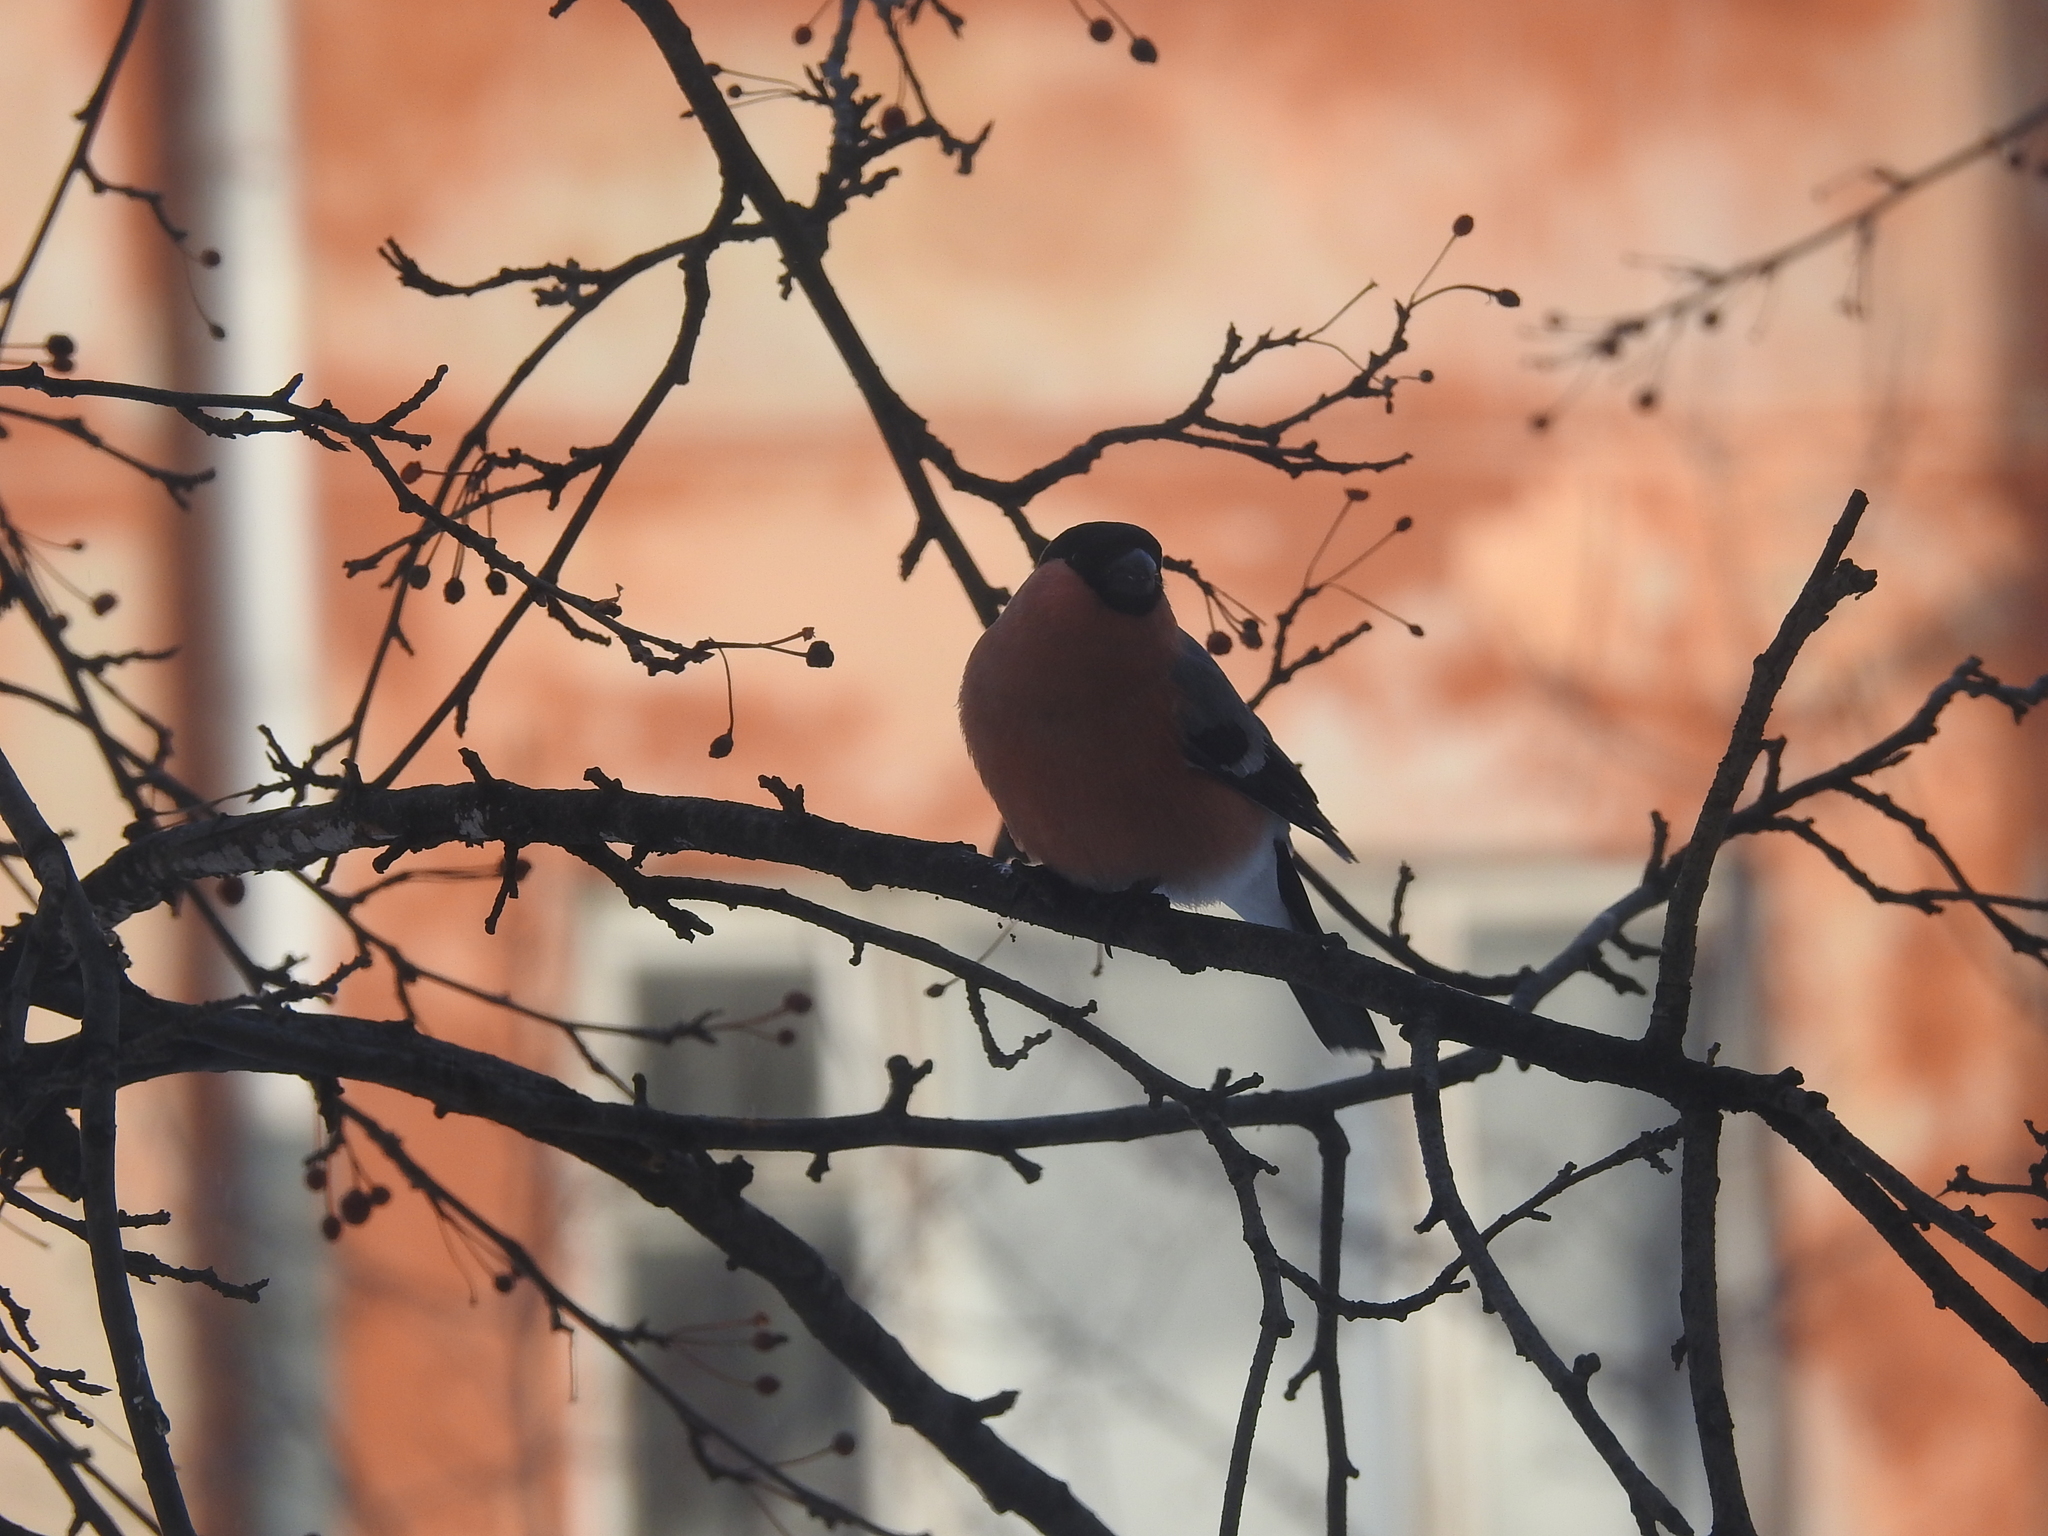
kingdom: Animalia
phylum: Chordata
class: Aves
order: Passeriformes
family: Fringillidae
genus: Pyrrhula
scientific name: Pyrrhula pyrrhula
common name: Eurasian bullfinch
